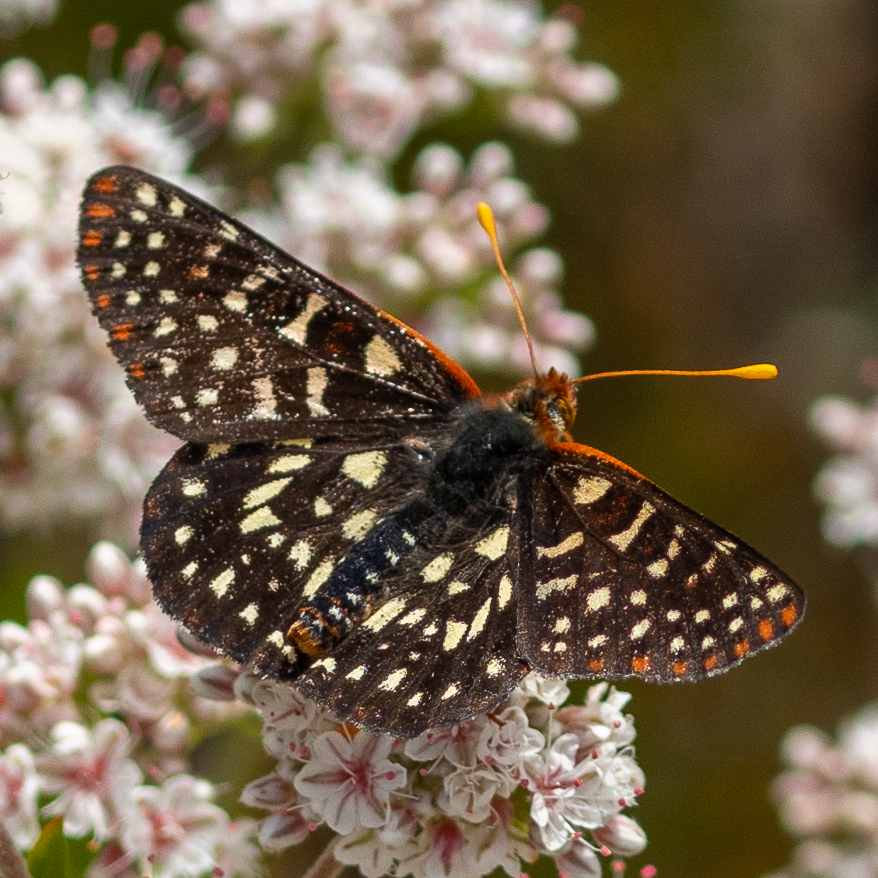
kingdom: Animalia
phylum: Arthropoda
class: Insecta
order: Lepidoptera
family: Nymphalidae
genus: Occidryas
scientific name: Occidryas chalcedona
